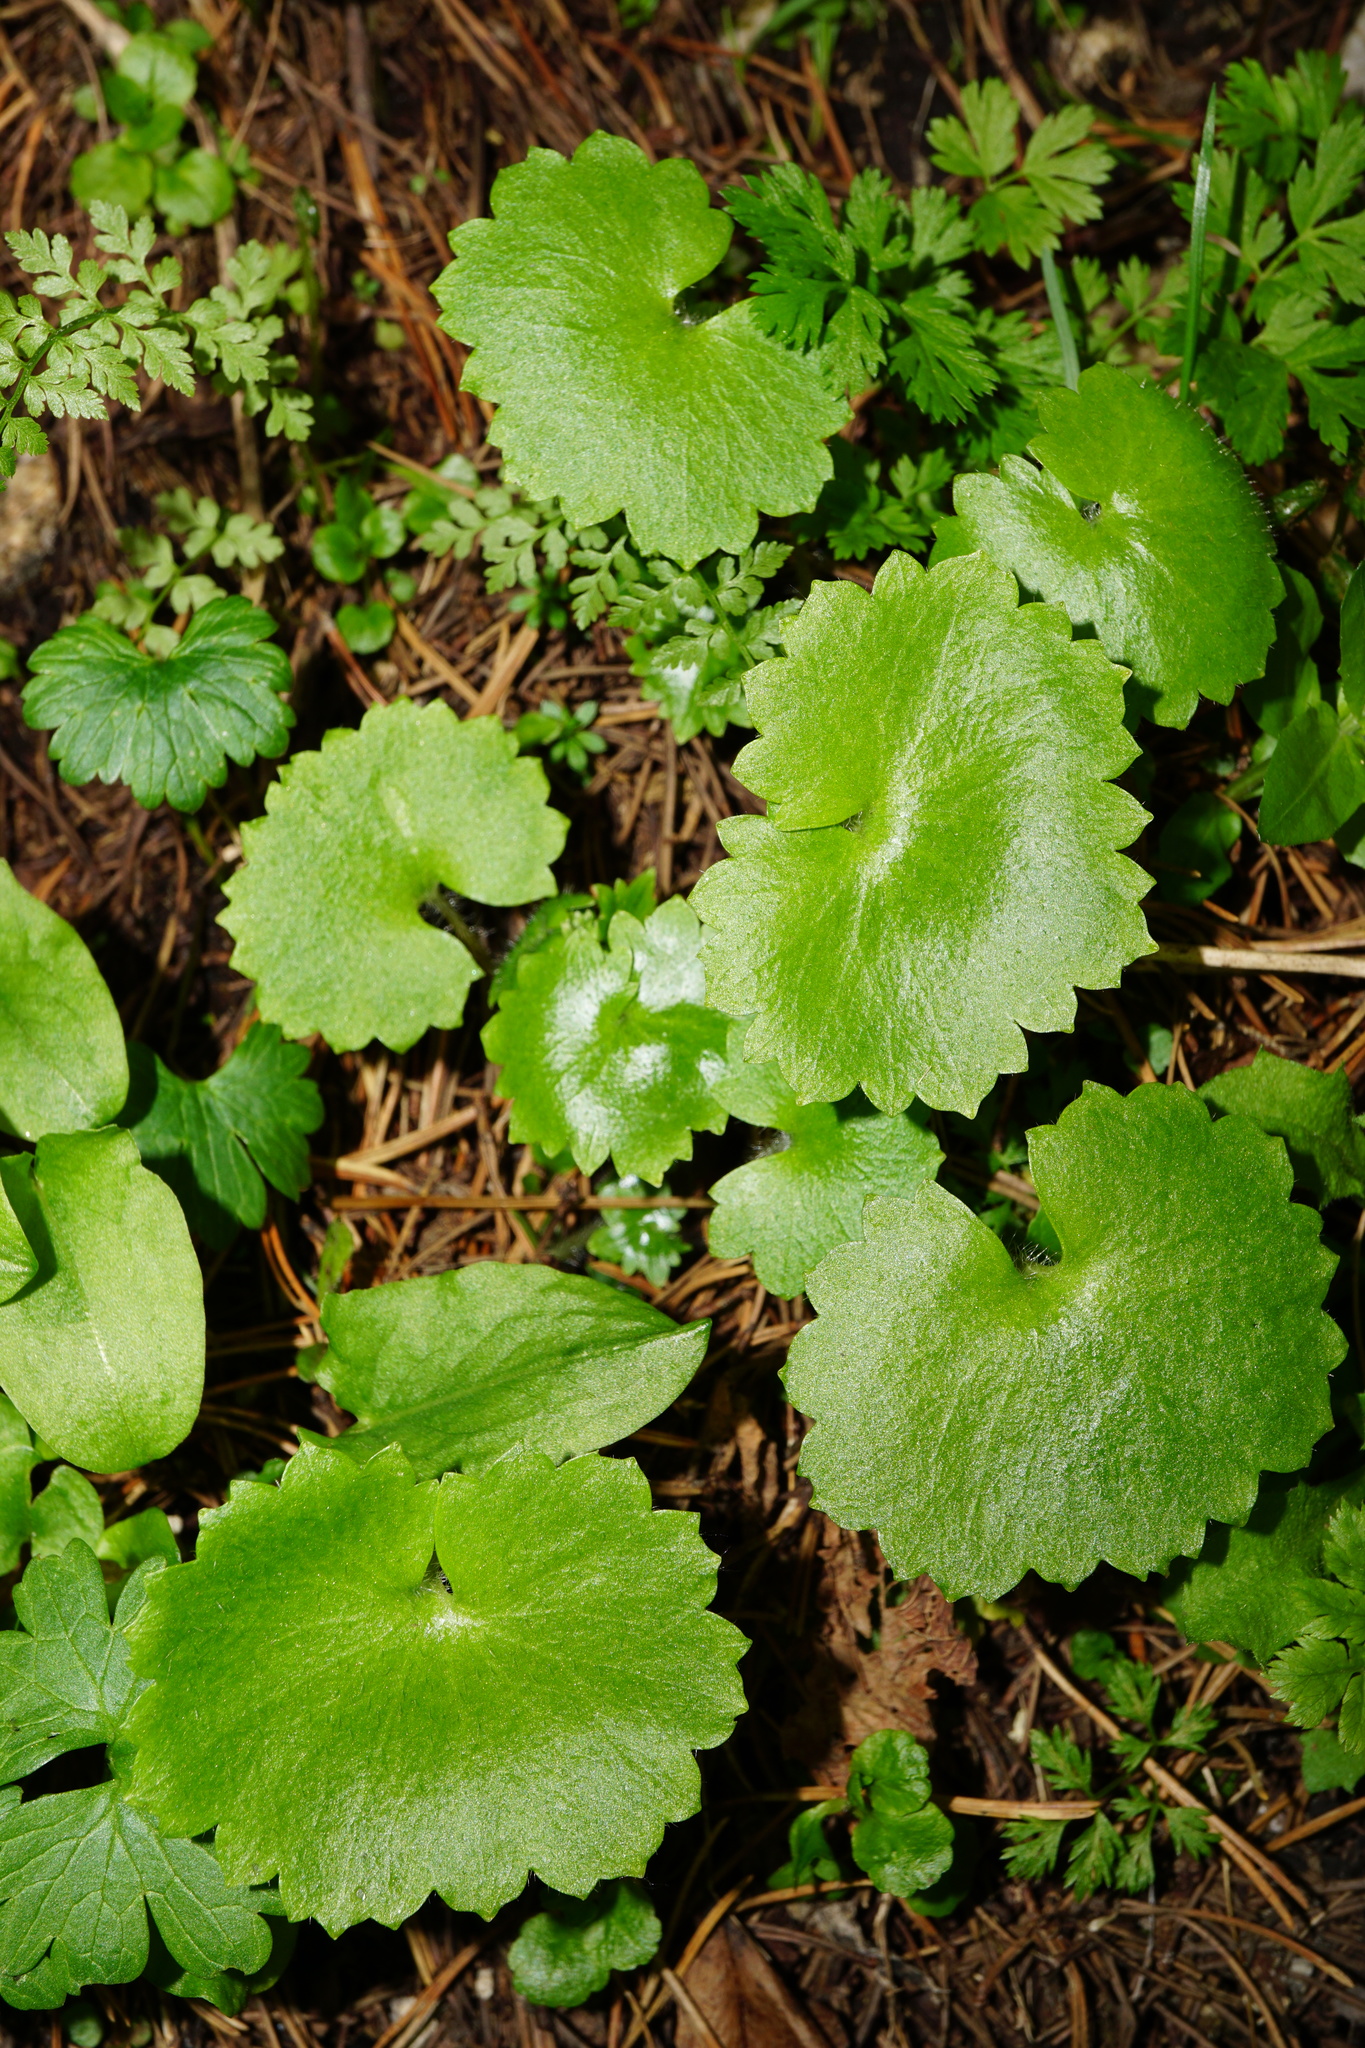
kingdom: Plantae
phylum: Tracheophyta
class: Magnoliopsida
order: Saxifragales
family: Saxifragaceae
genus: Saxifraga
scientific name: Saxifraga rotundifolia
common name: Round-leaved saxifrage
